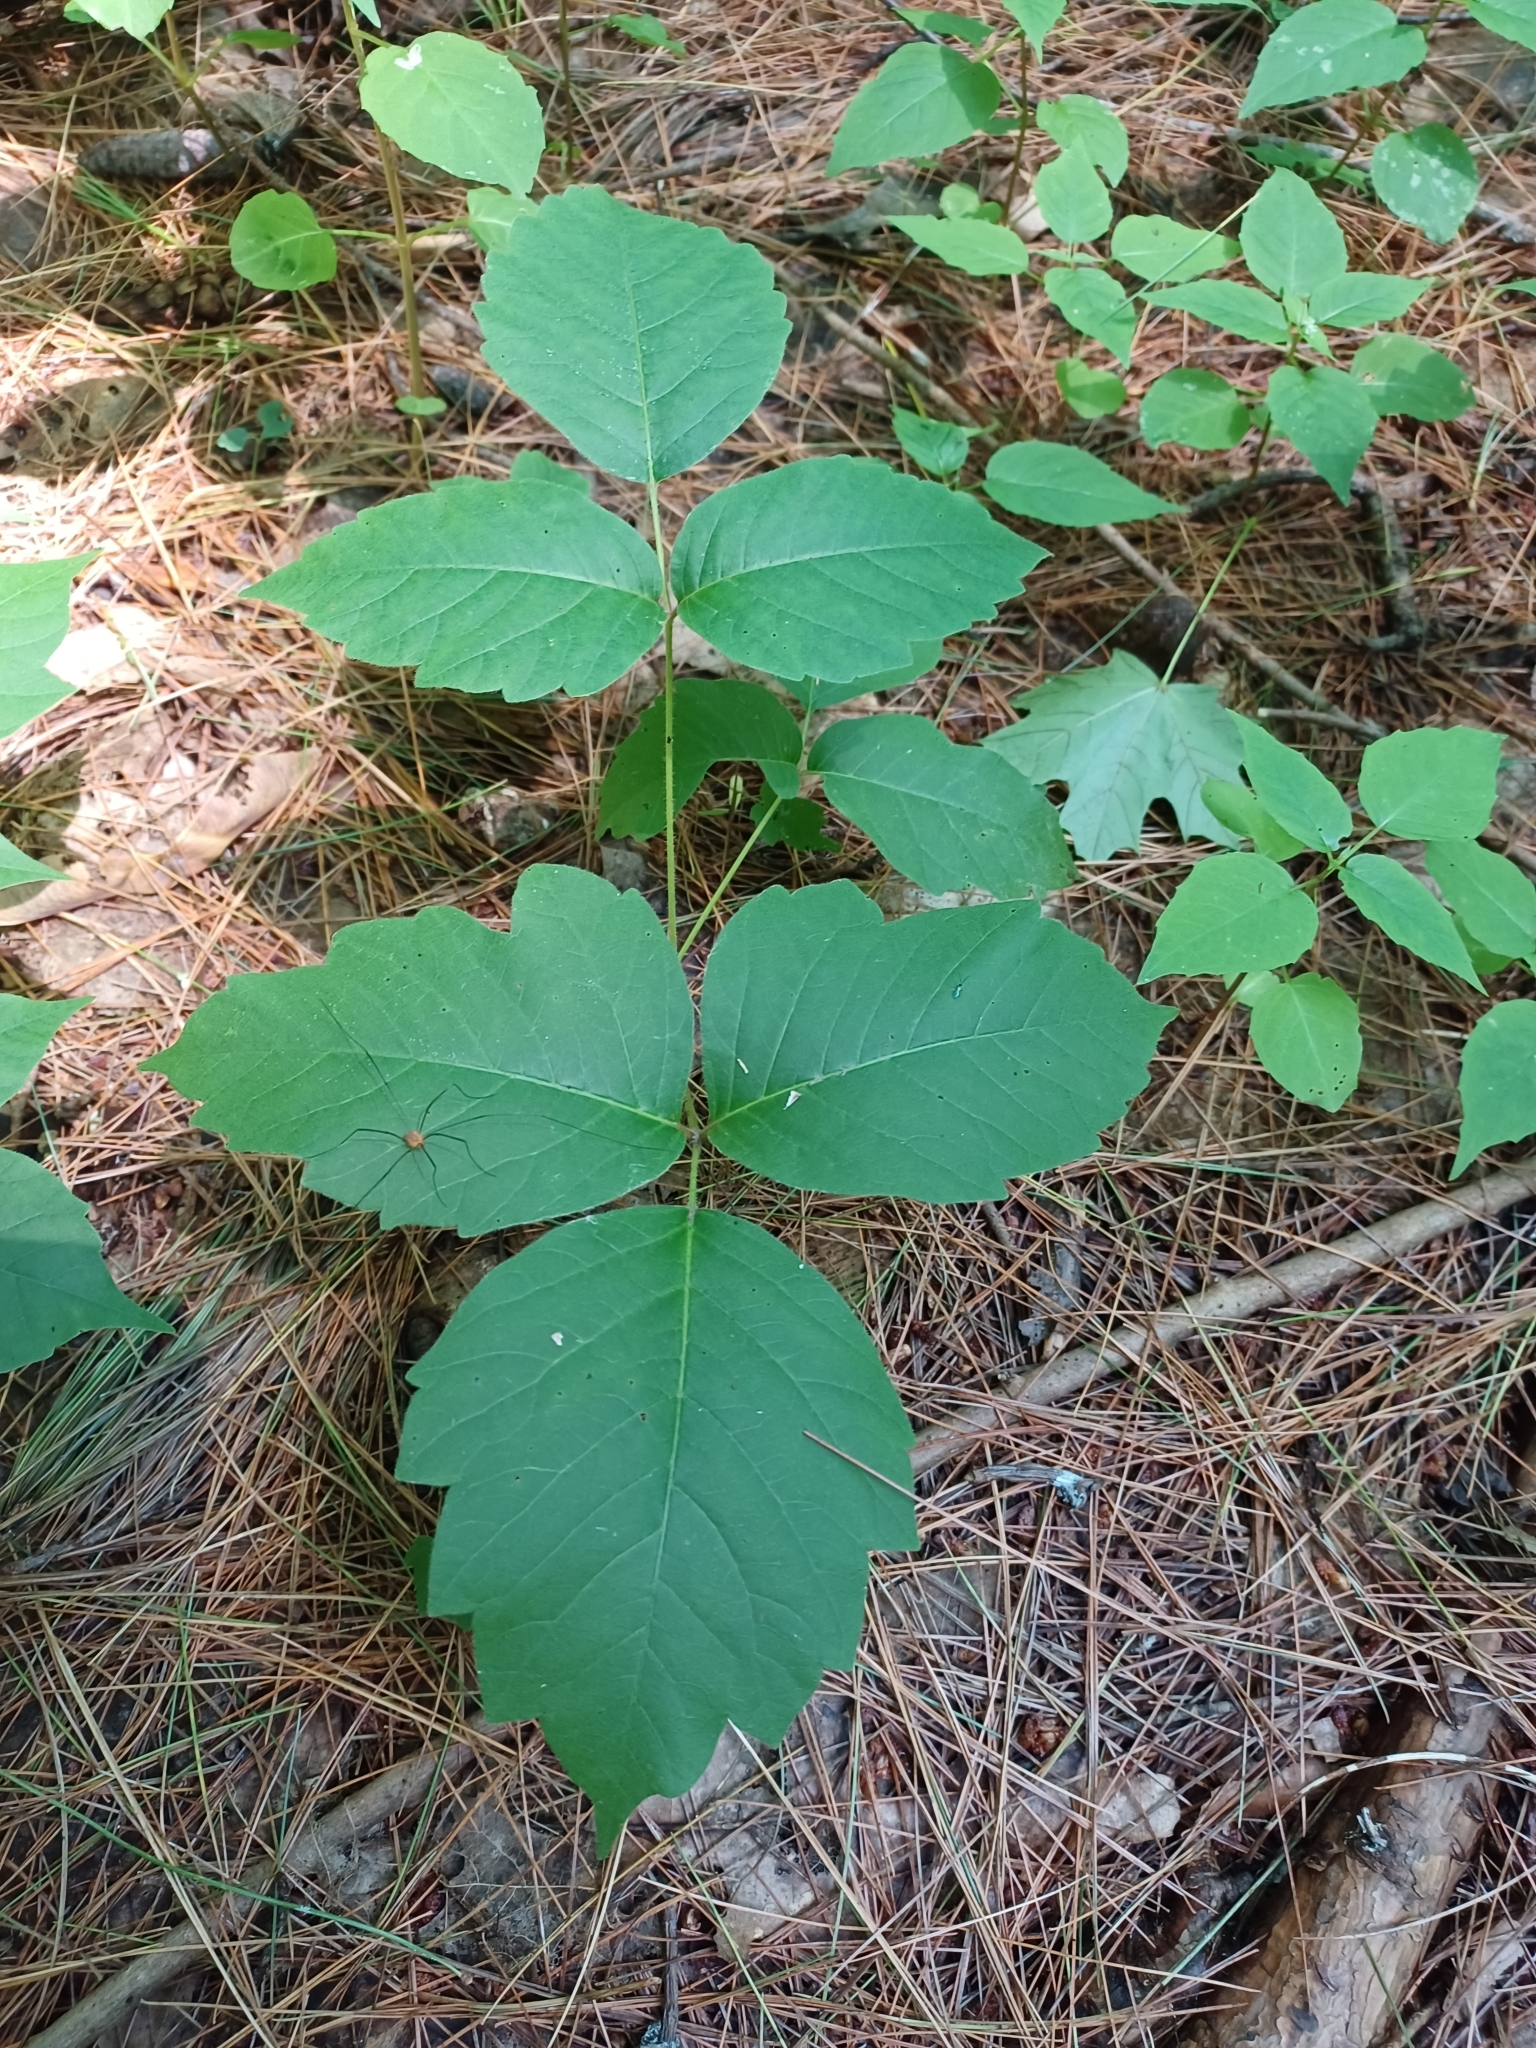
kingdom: Plantae
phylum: Tracheophyta
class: Magnoliopsida
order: Sapindales
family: Anacardiaceae
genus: Toxicodendron
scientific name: Toxicodendron radicans
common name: Poison ivy
